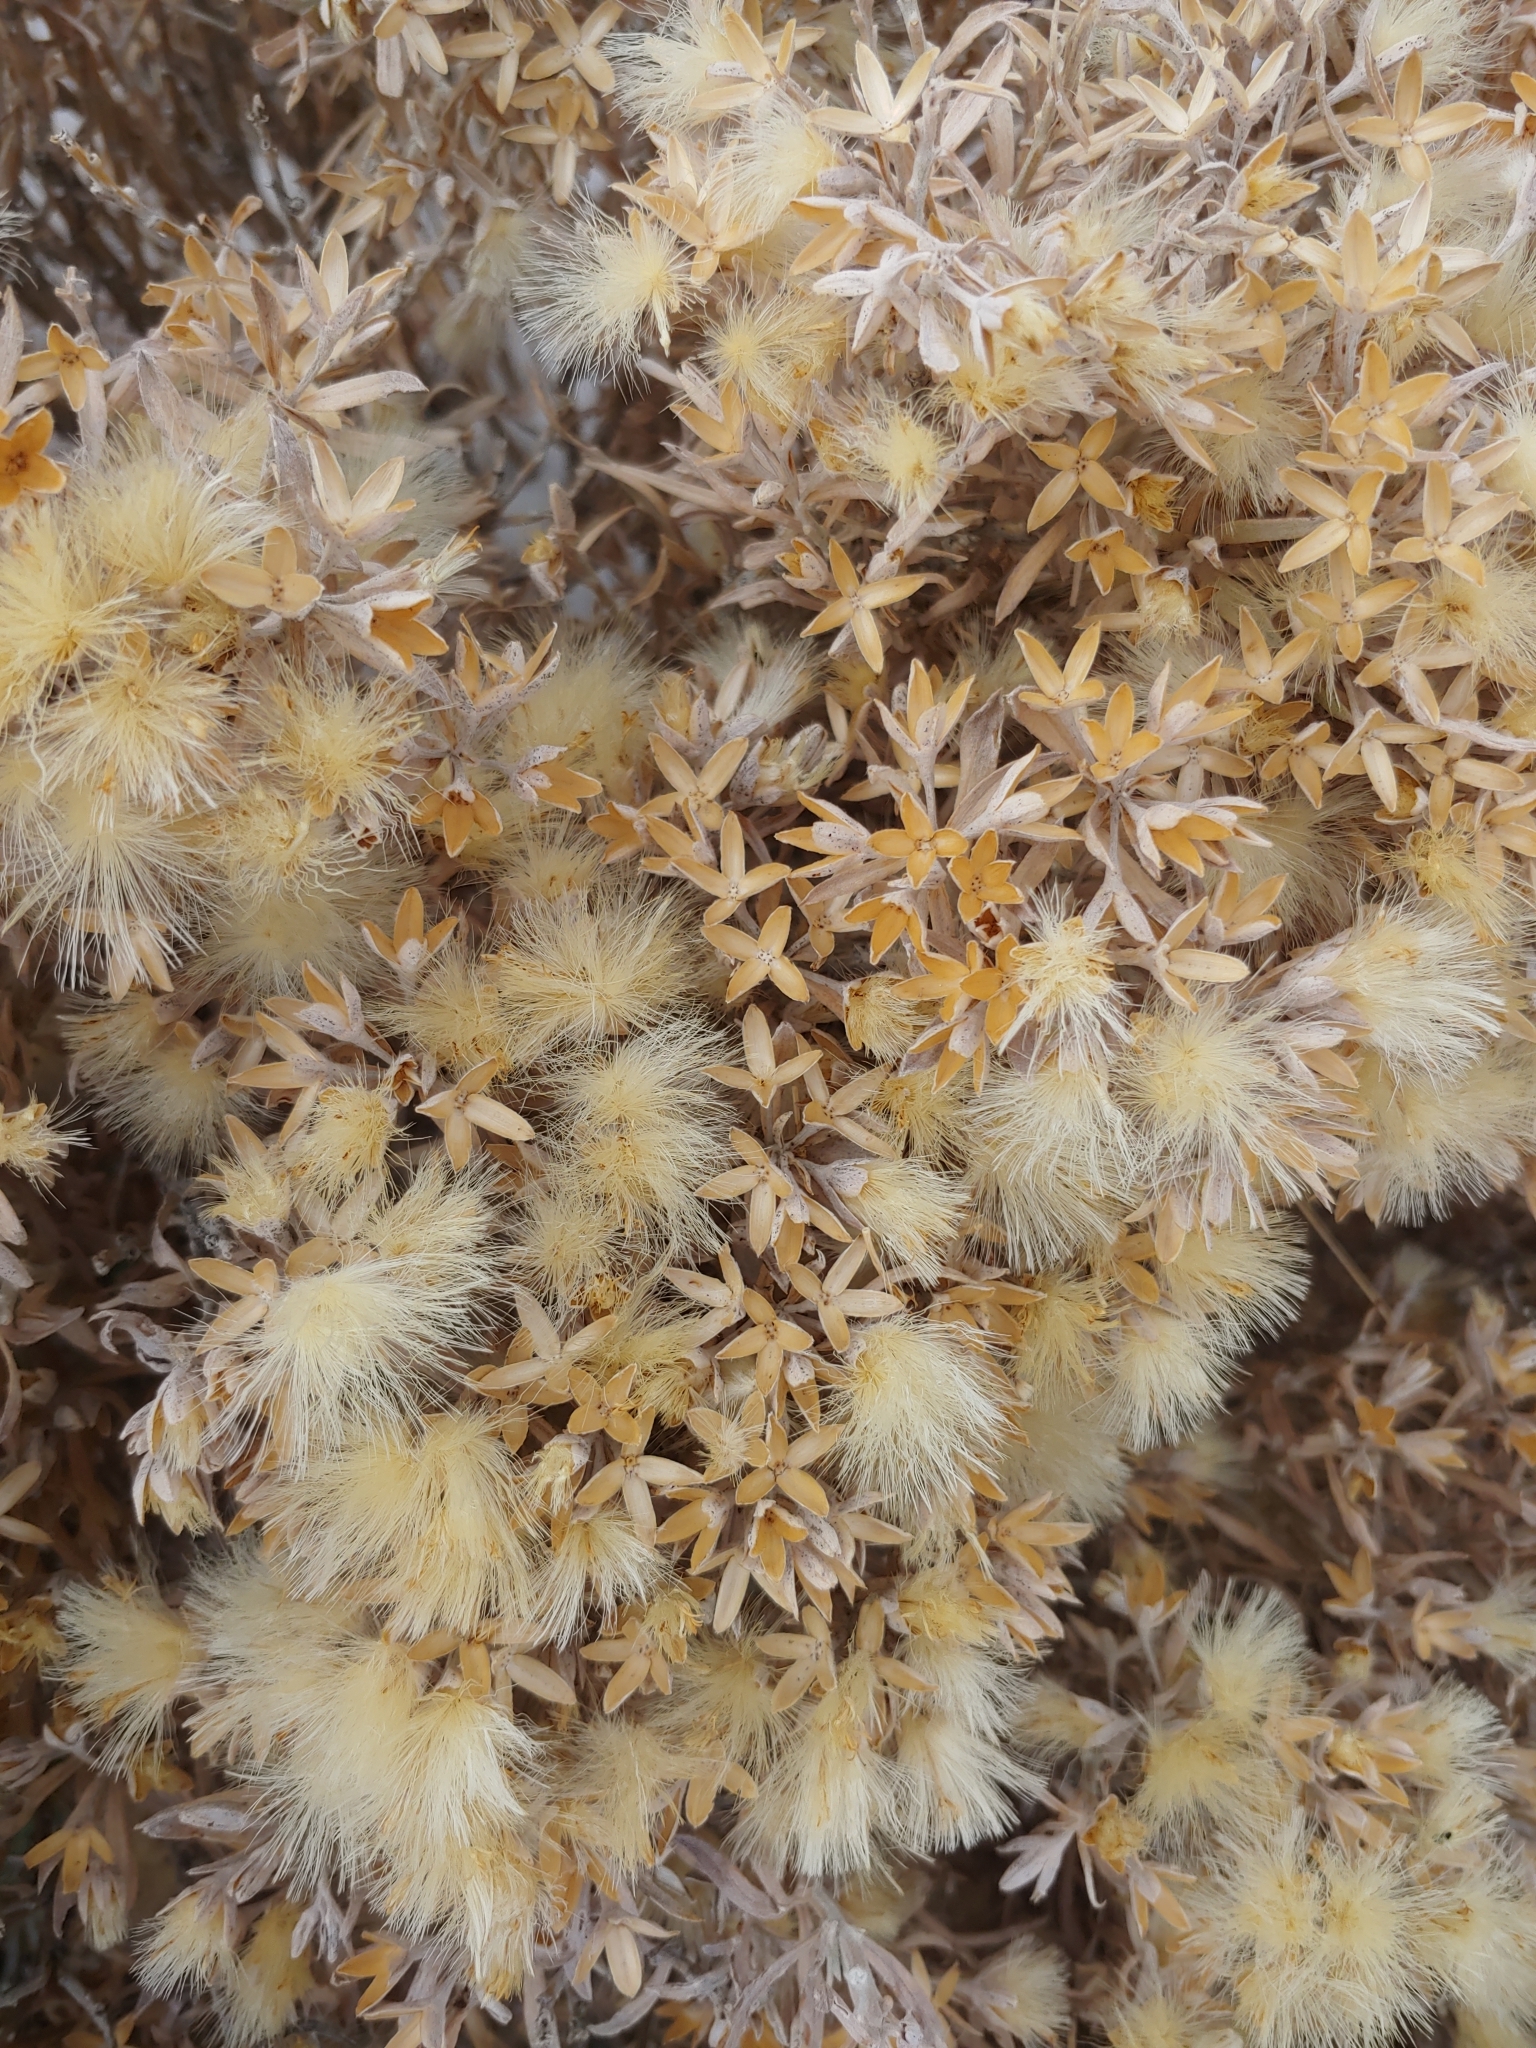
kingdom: Plantae
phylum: Tracheophyta
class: Magnoliopsida
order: Asterales
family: Asteraceae
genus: Tetradymia
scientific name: Tetradymia canescens
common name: Spineless horsebrush
